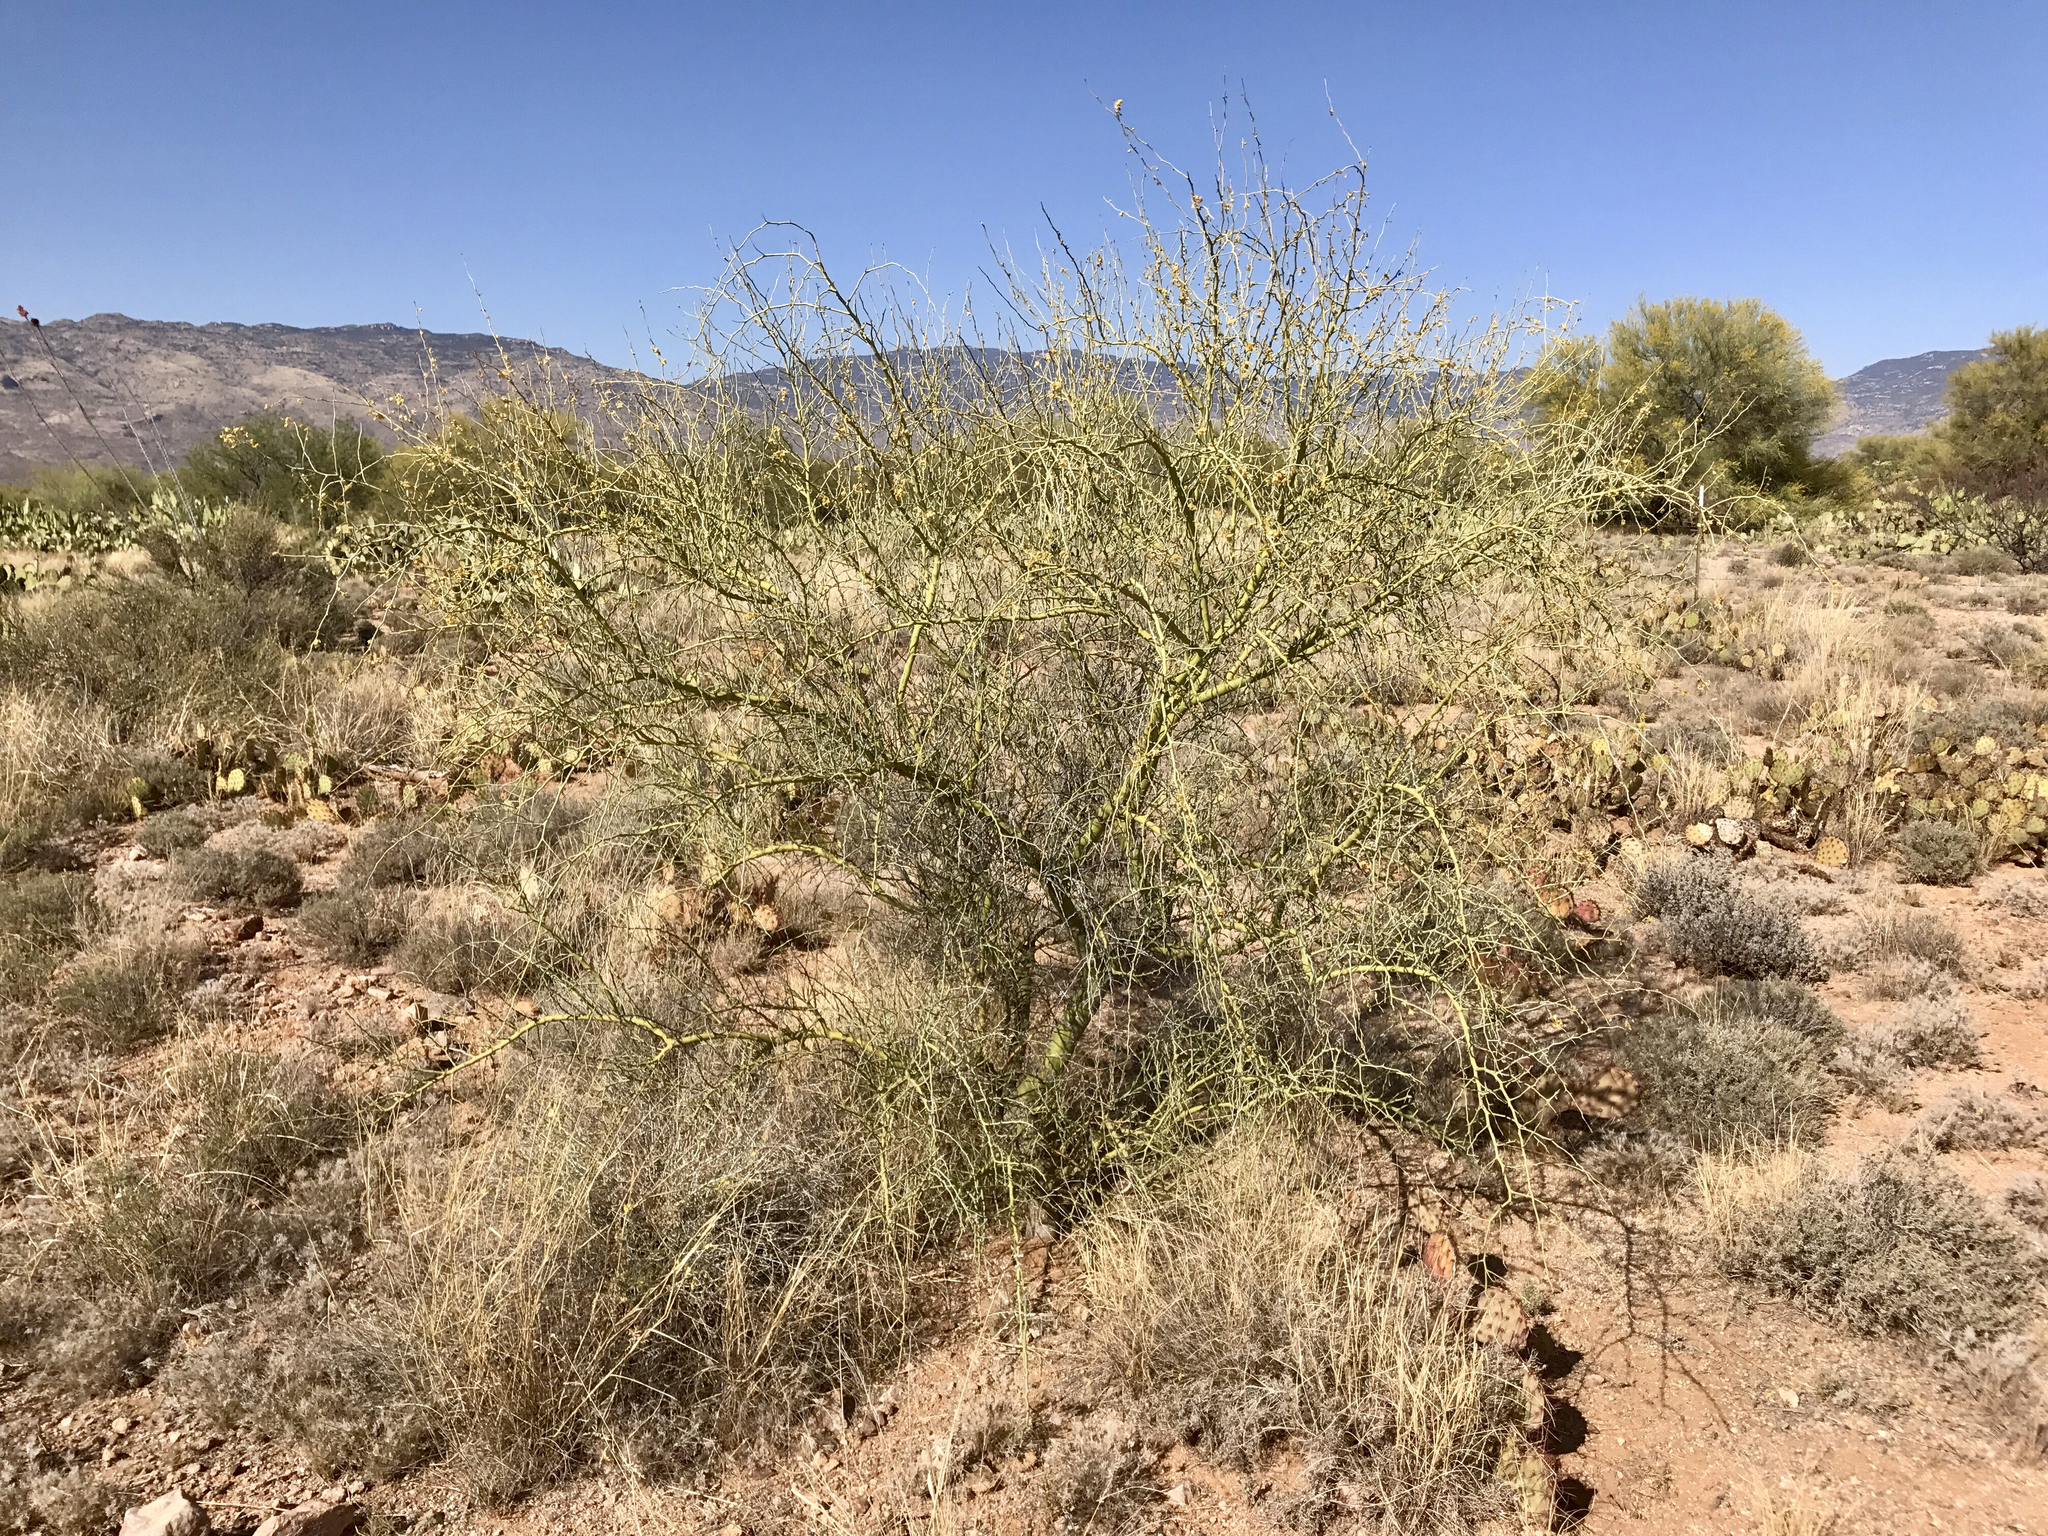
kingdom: Plantae
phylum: Tracheophyta
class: Magnoliopsida
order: Fabales
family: Fabaceae
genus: Parkinsonia
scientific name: Parkinsonia florida
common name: Blue paloverde
